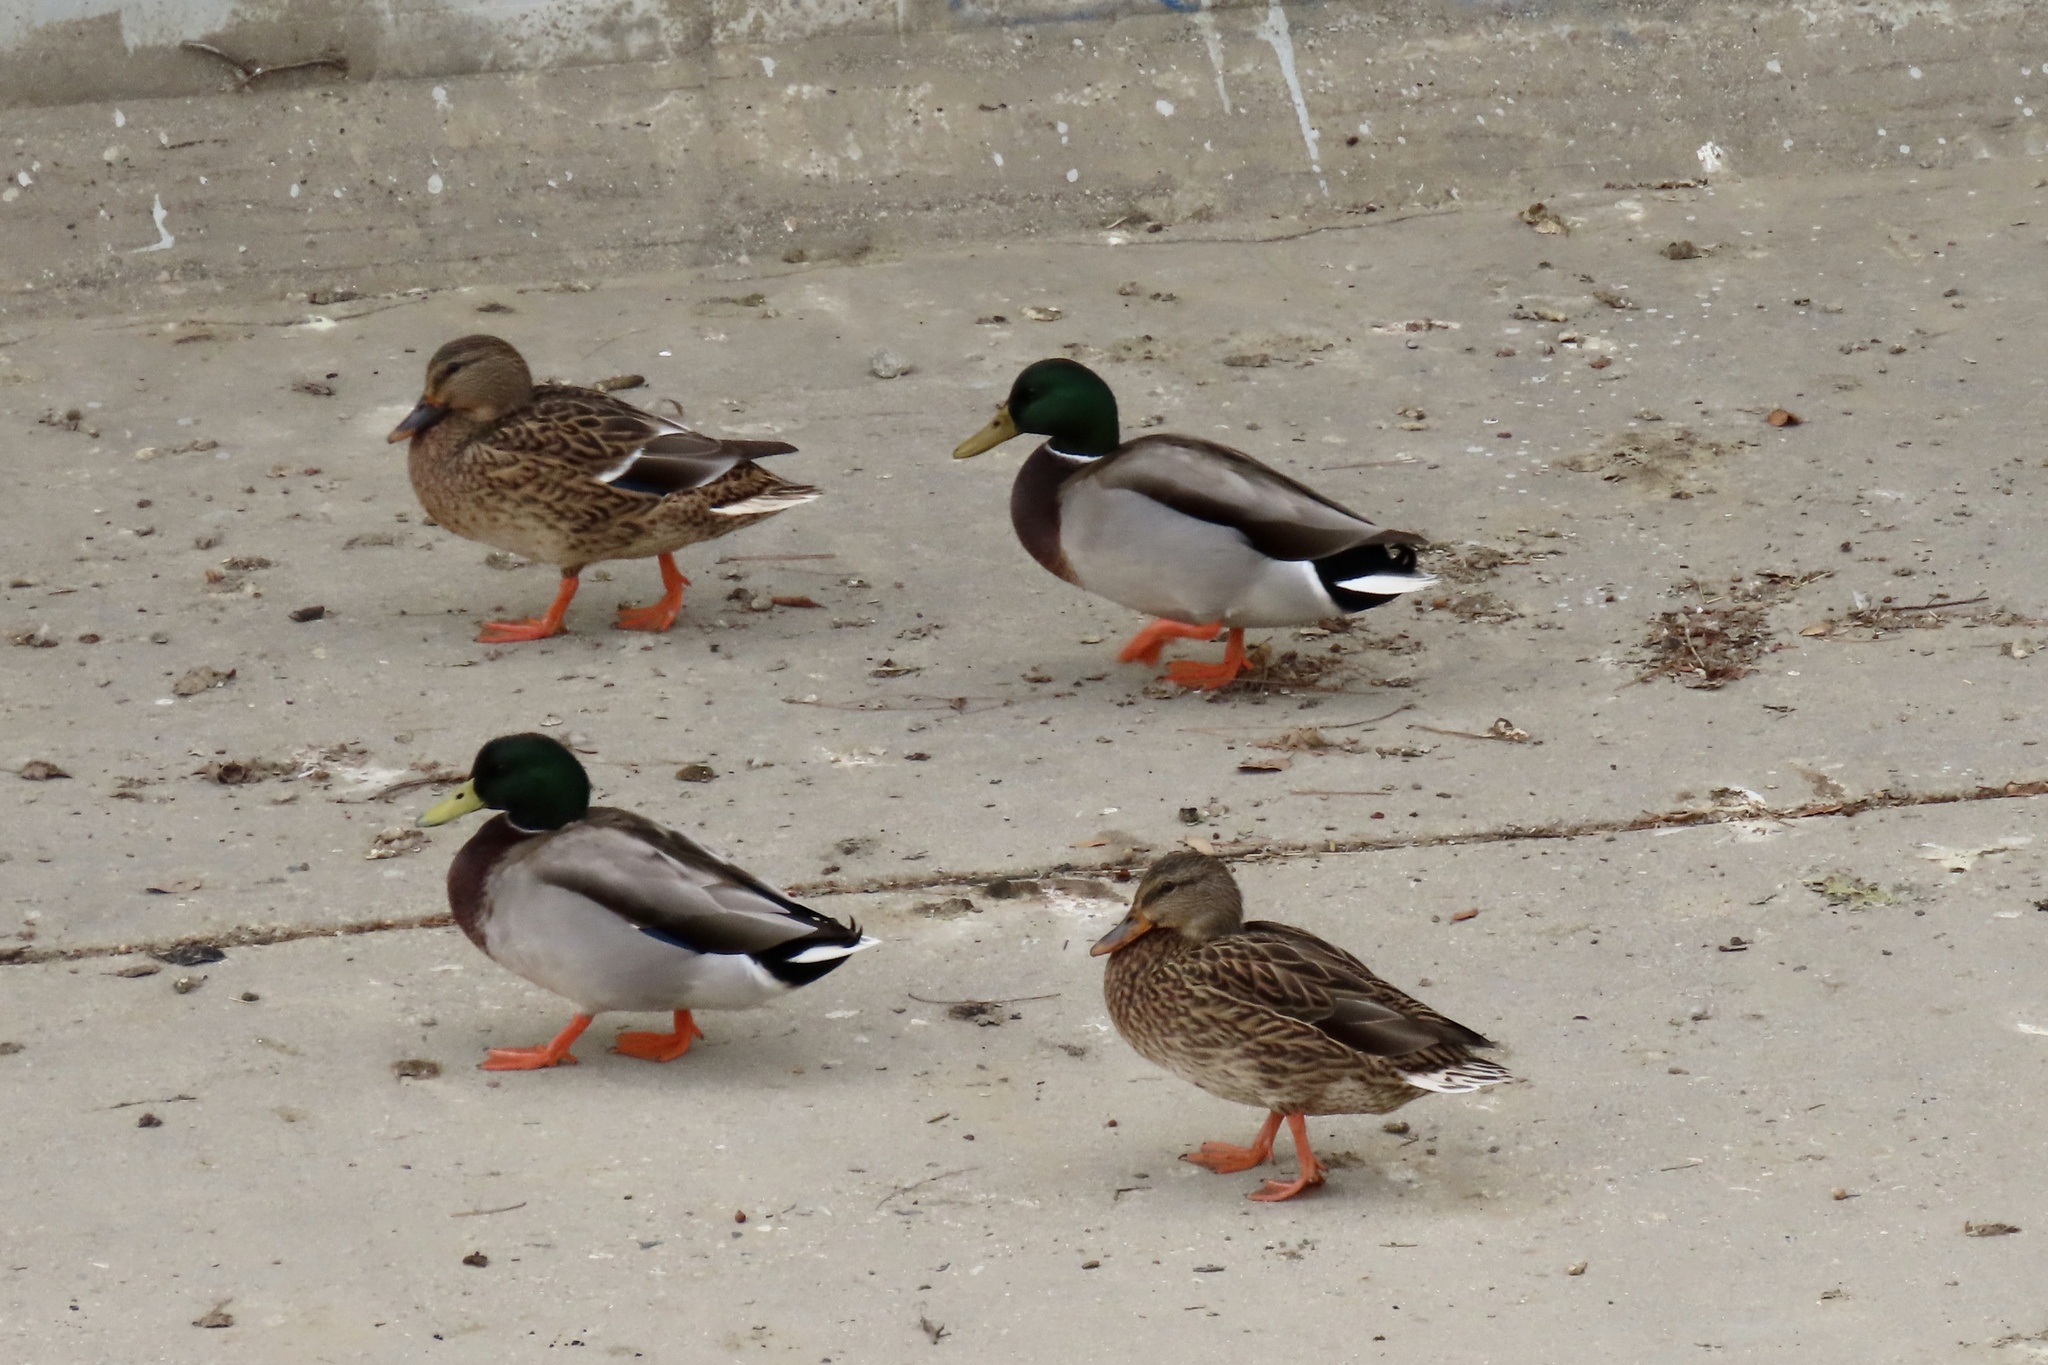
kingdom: Animalia
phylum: Chordata
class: Aves
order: Anseriformes
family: Anatidae
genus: Anas
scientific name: Anas platyrhynchos
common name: Mallard
